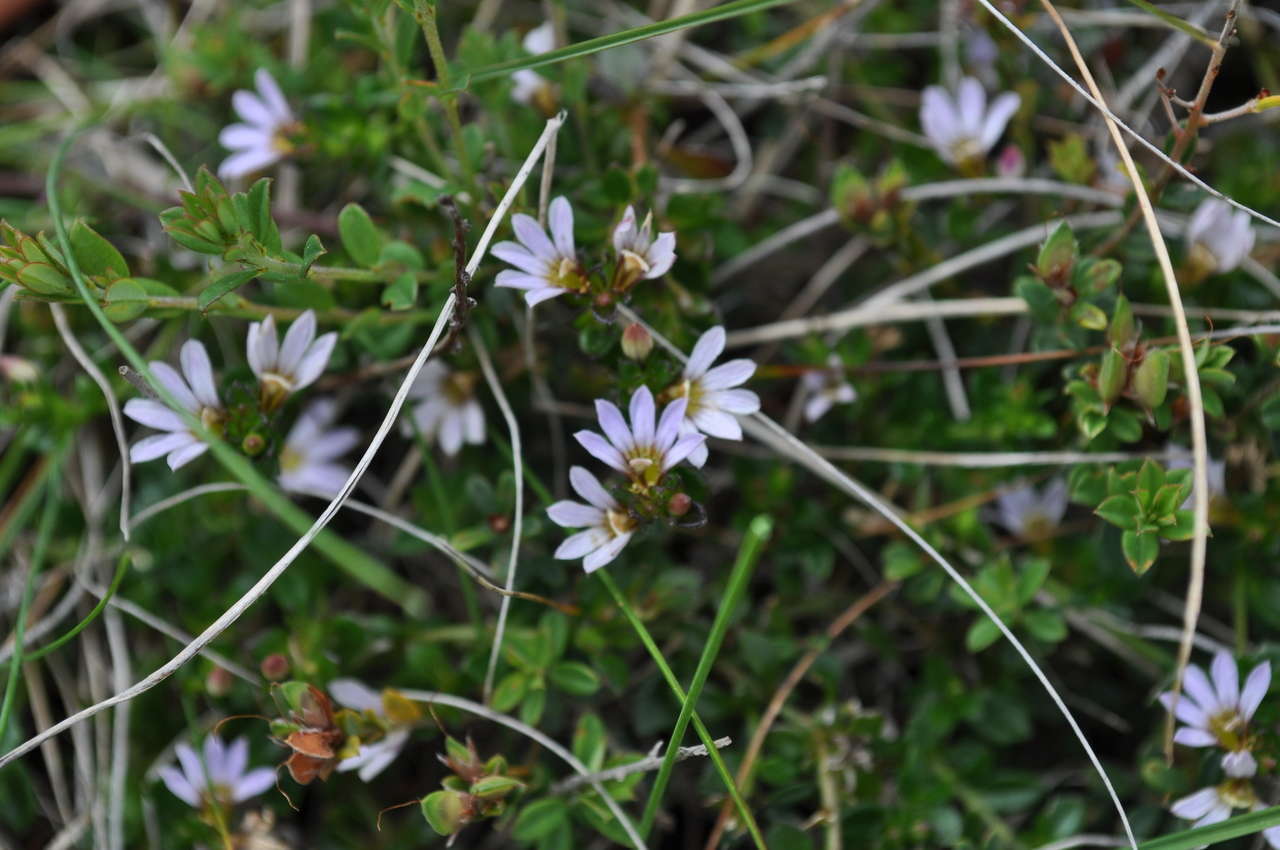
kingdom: Plantae
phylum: Tracheophyta
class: Magnoliopsida
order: Asterales
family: Goodeniaceae
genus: Scaevola
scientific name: Scaevola albida
